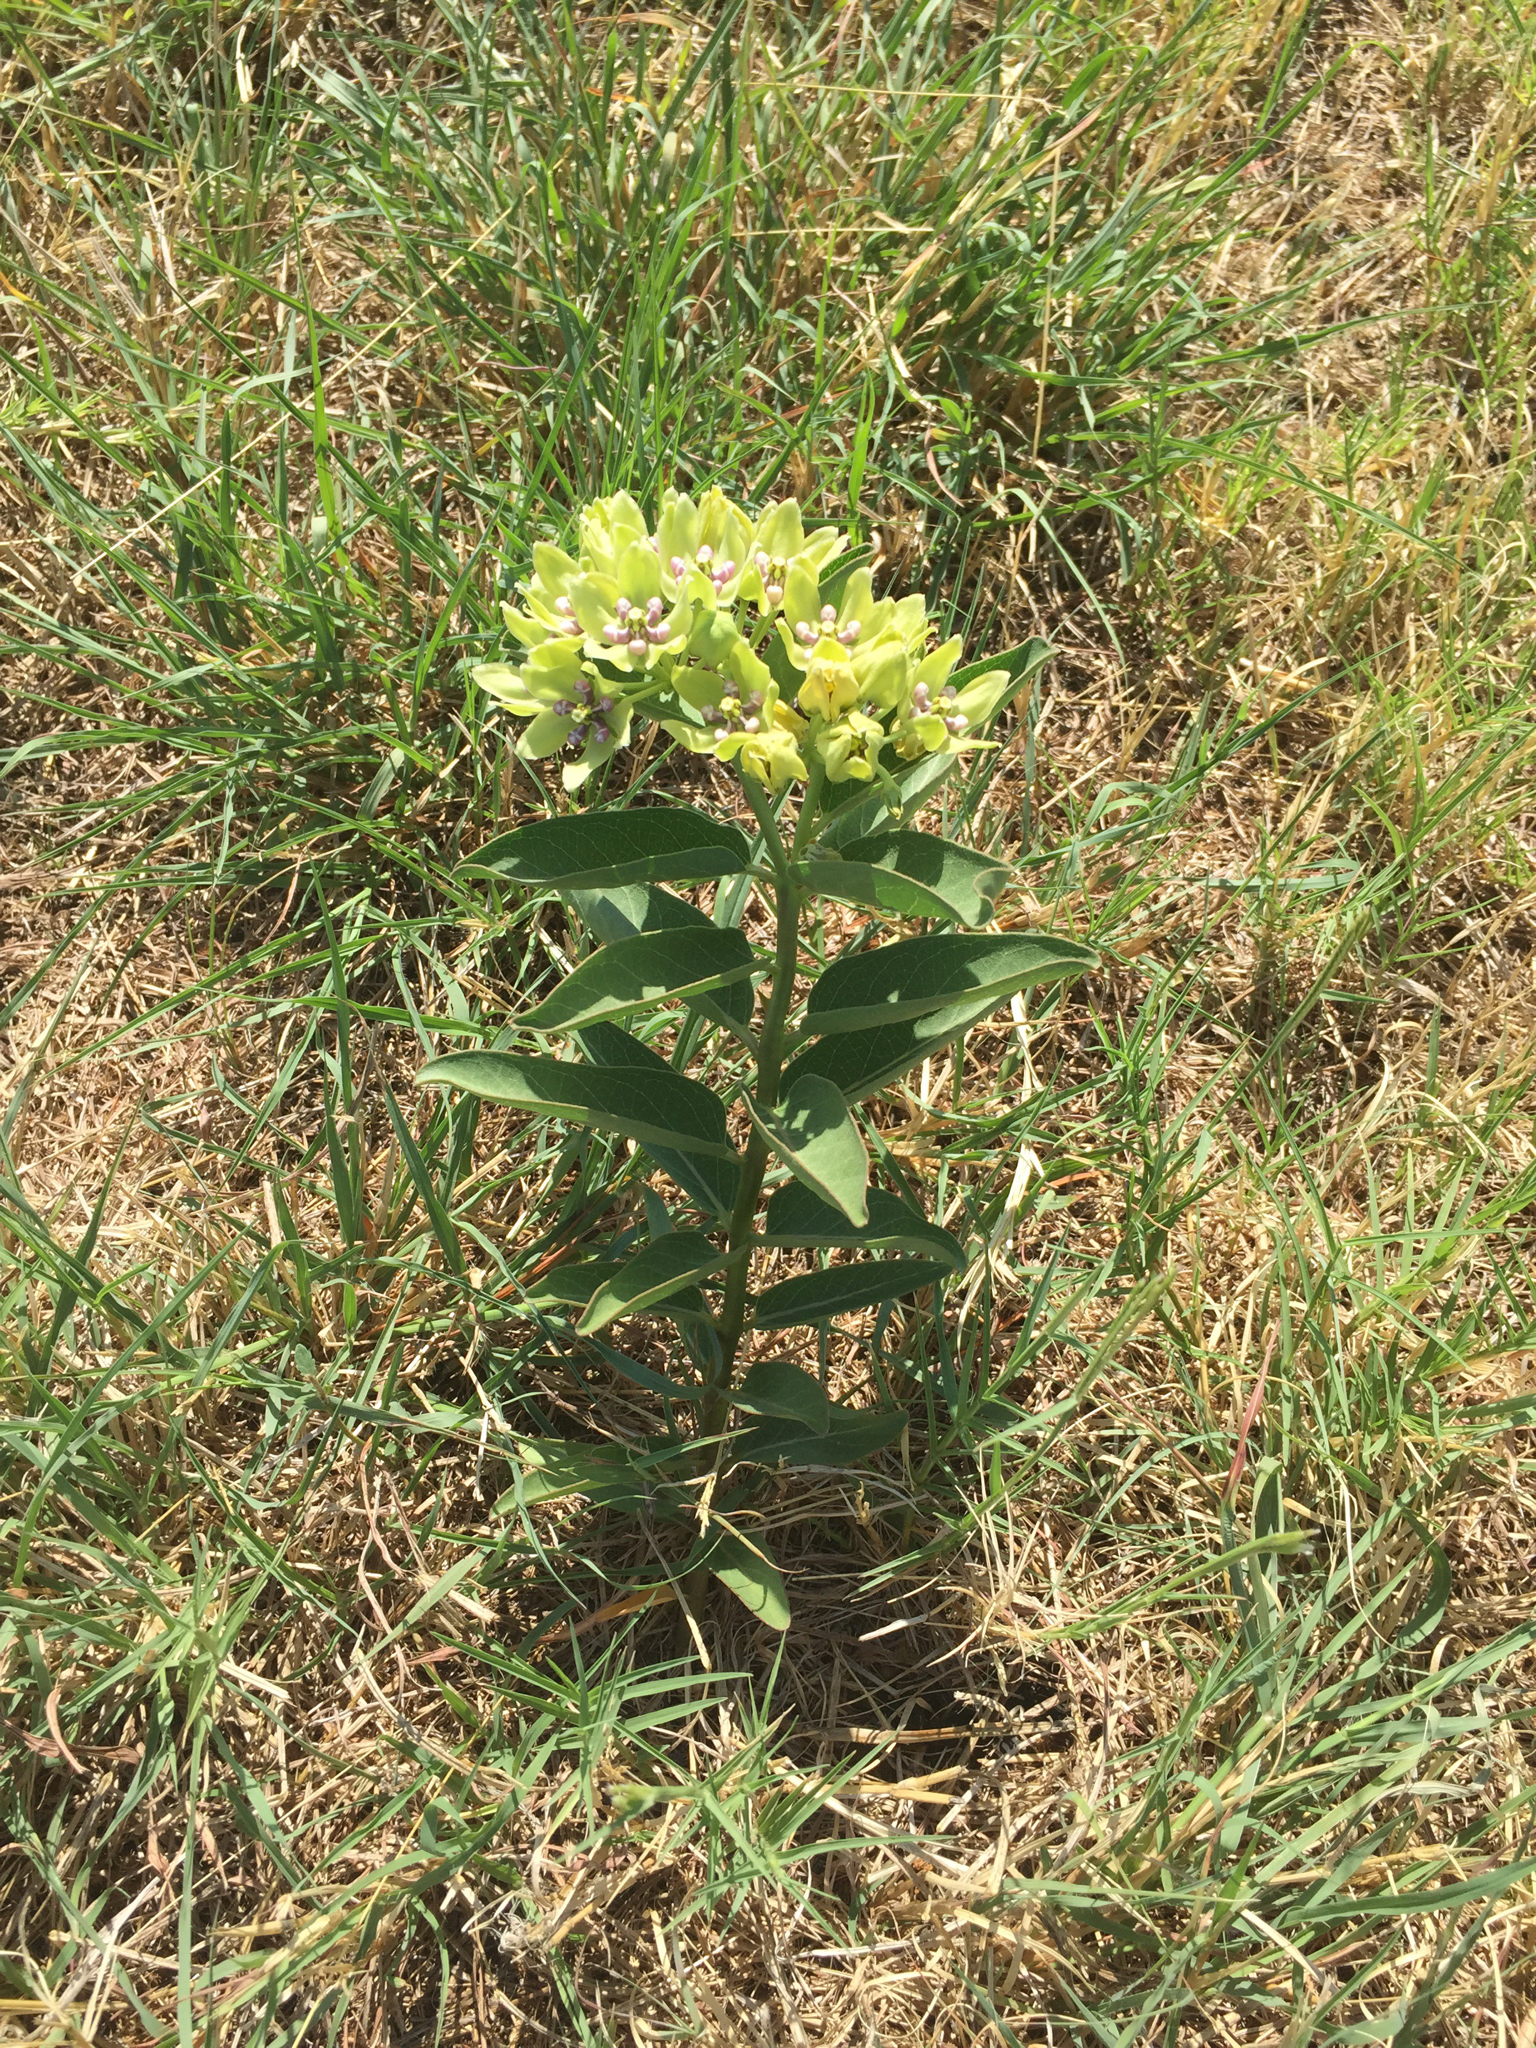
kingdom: Plantae
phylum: Tracheophyta
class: Magnoliopsida
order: Gentianales
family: Apocynaceae
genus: Asclepias
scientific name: Asclepias viridis
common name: Antelope-horns
